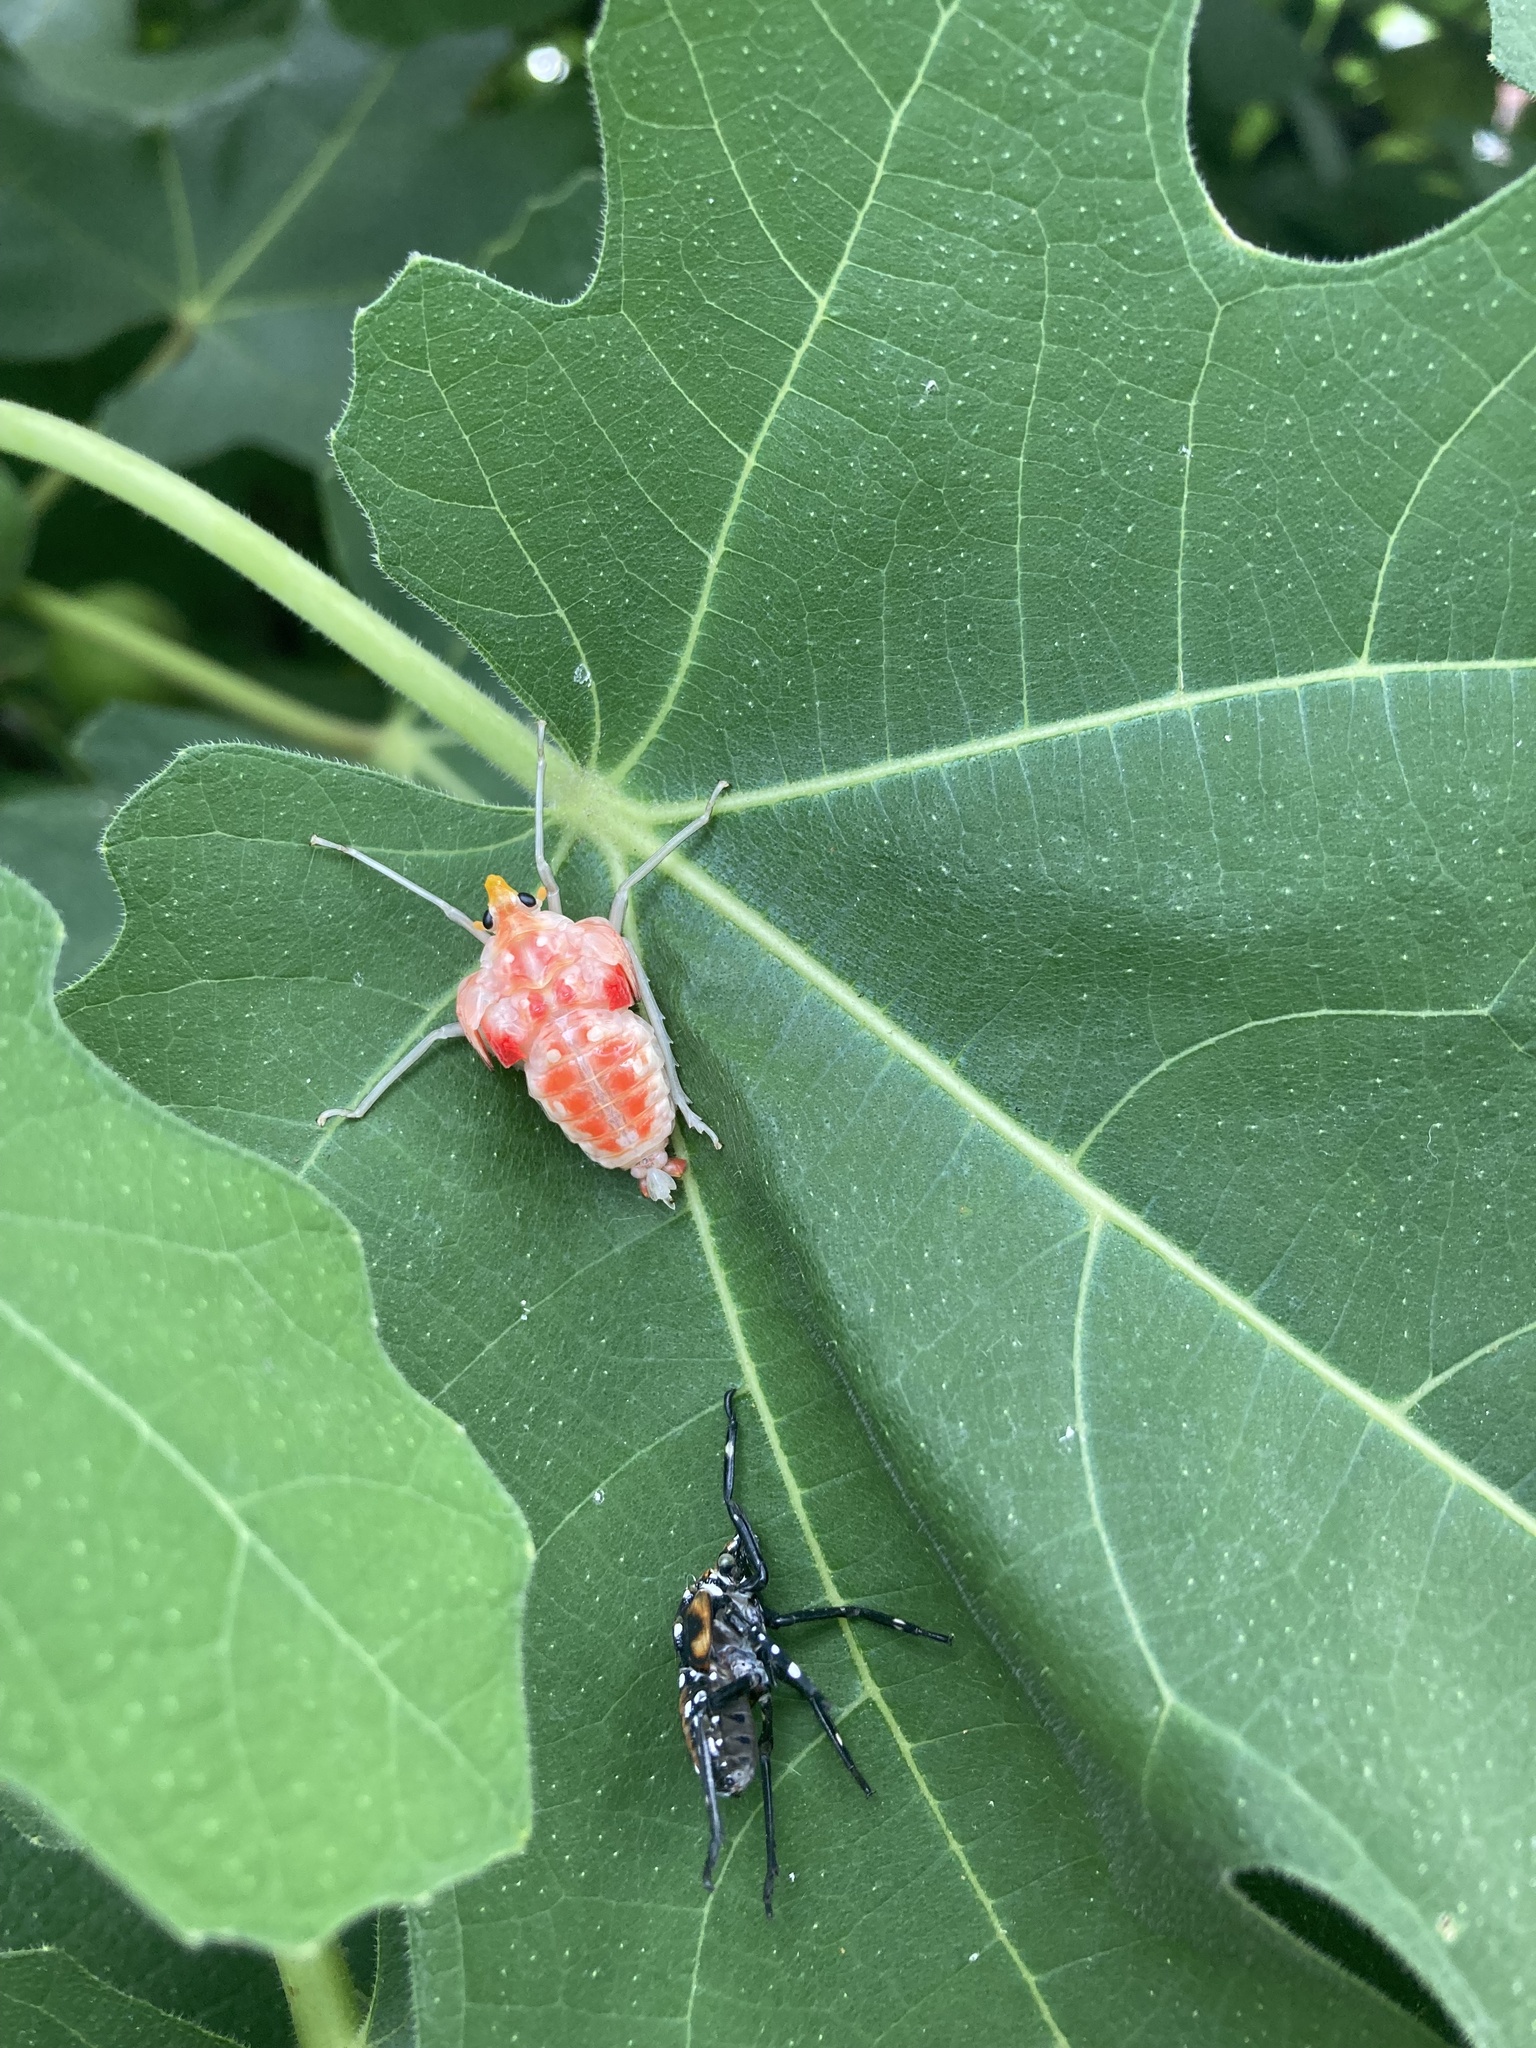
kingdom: Animalia
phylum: Arthropoda
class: Insecta
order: Hemiptera
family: Fulgoridae
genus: Lycorma
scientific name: Lycorma delicatula
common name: Spotted lanternfly
